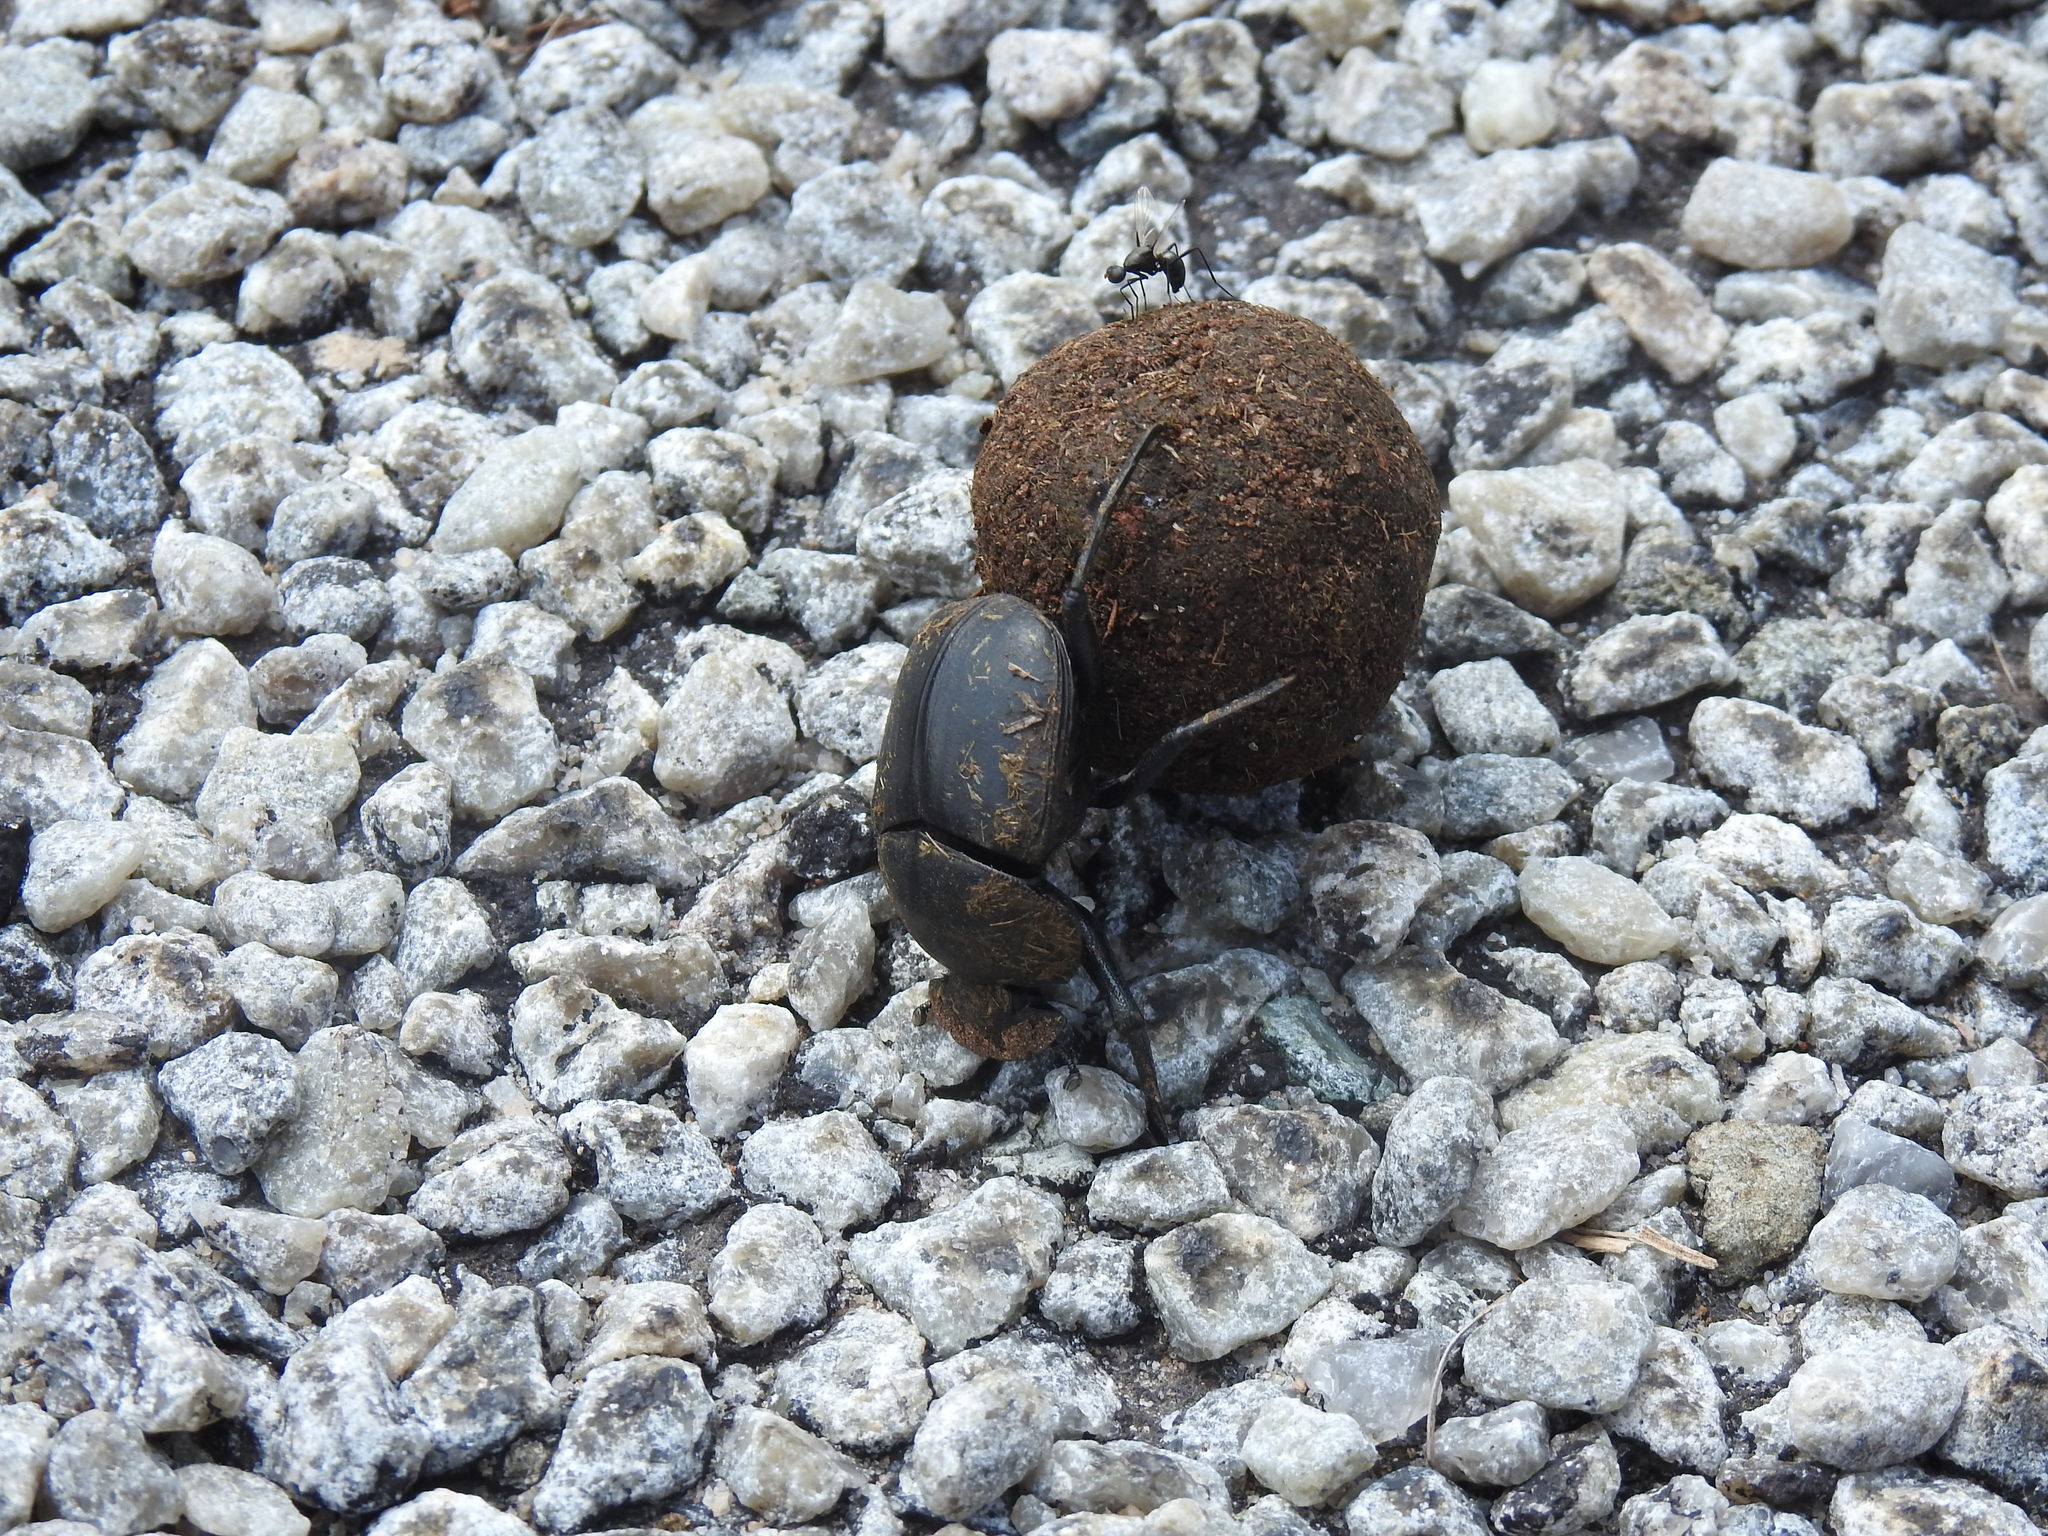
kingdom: Animalia
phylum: Arthropoda
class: Insecta
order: Coleoptera
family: Scarabaeidae
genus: Scarabaeus
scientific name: Scarabaeus ambiguus
